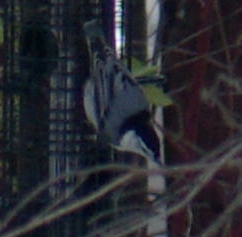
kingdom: Animalia
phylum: Chordata
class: Aves
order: Passeriformes
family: Sittidae
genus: Sitta
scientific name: Sitta carolinensis
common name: White-breasted nuthatch
